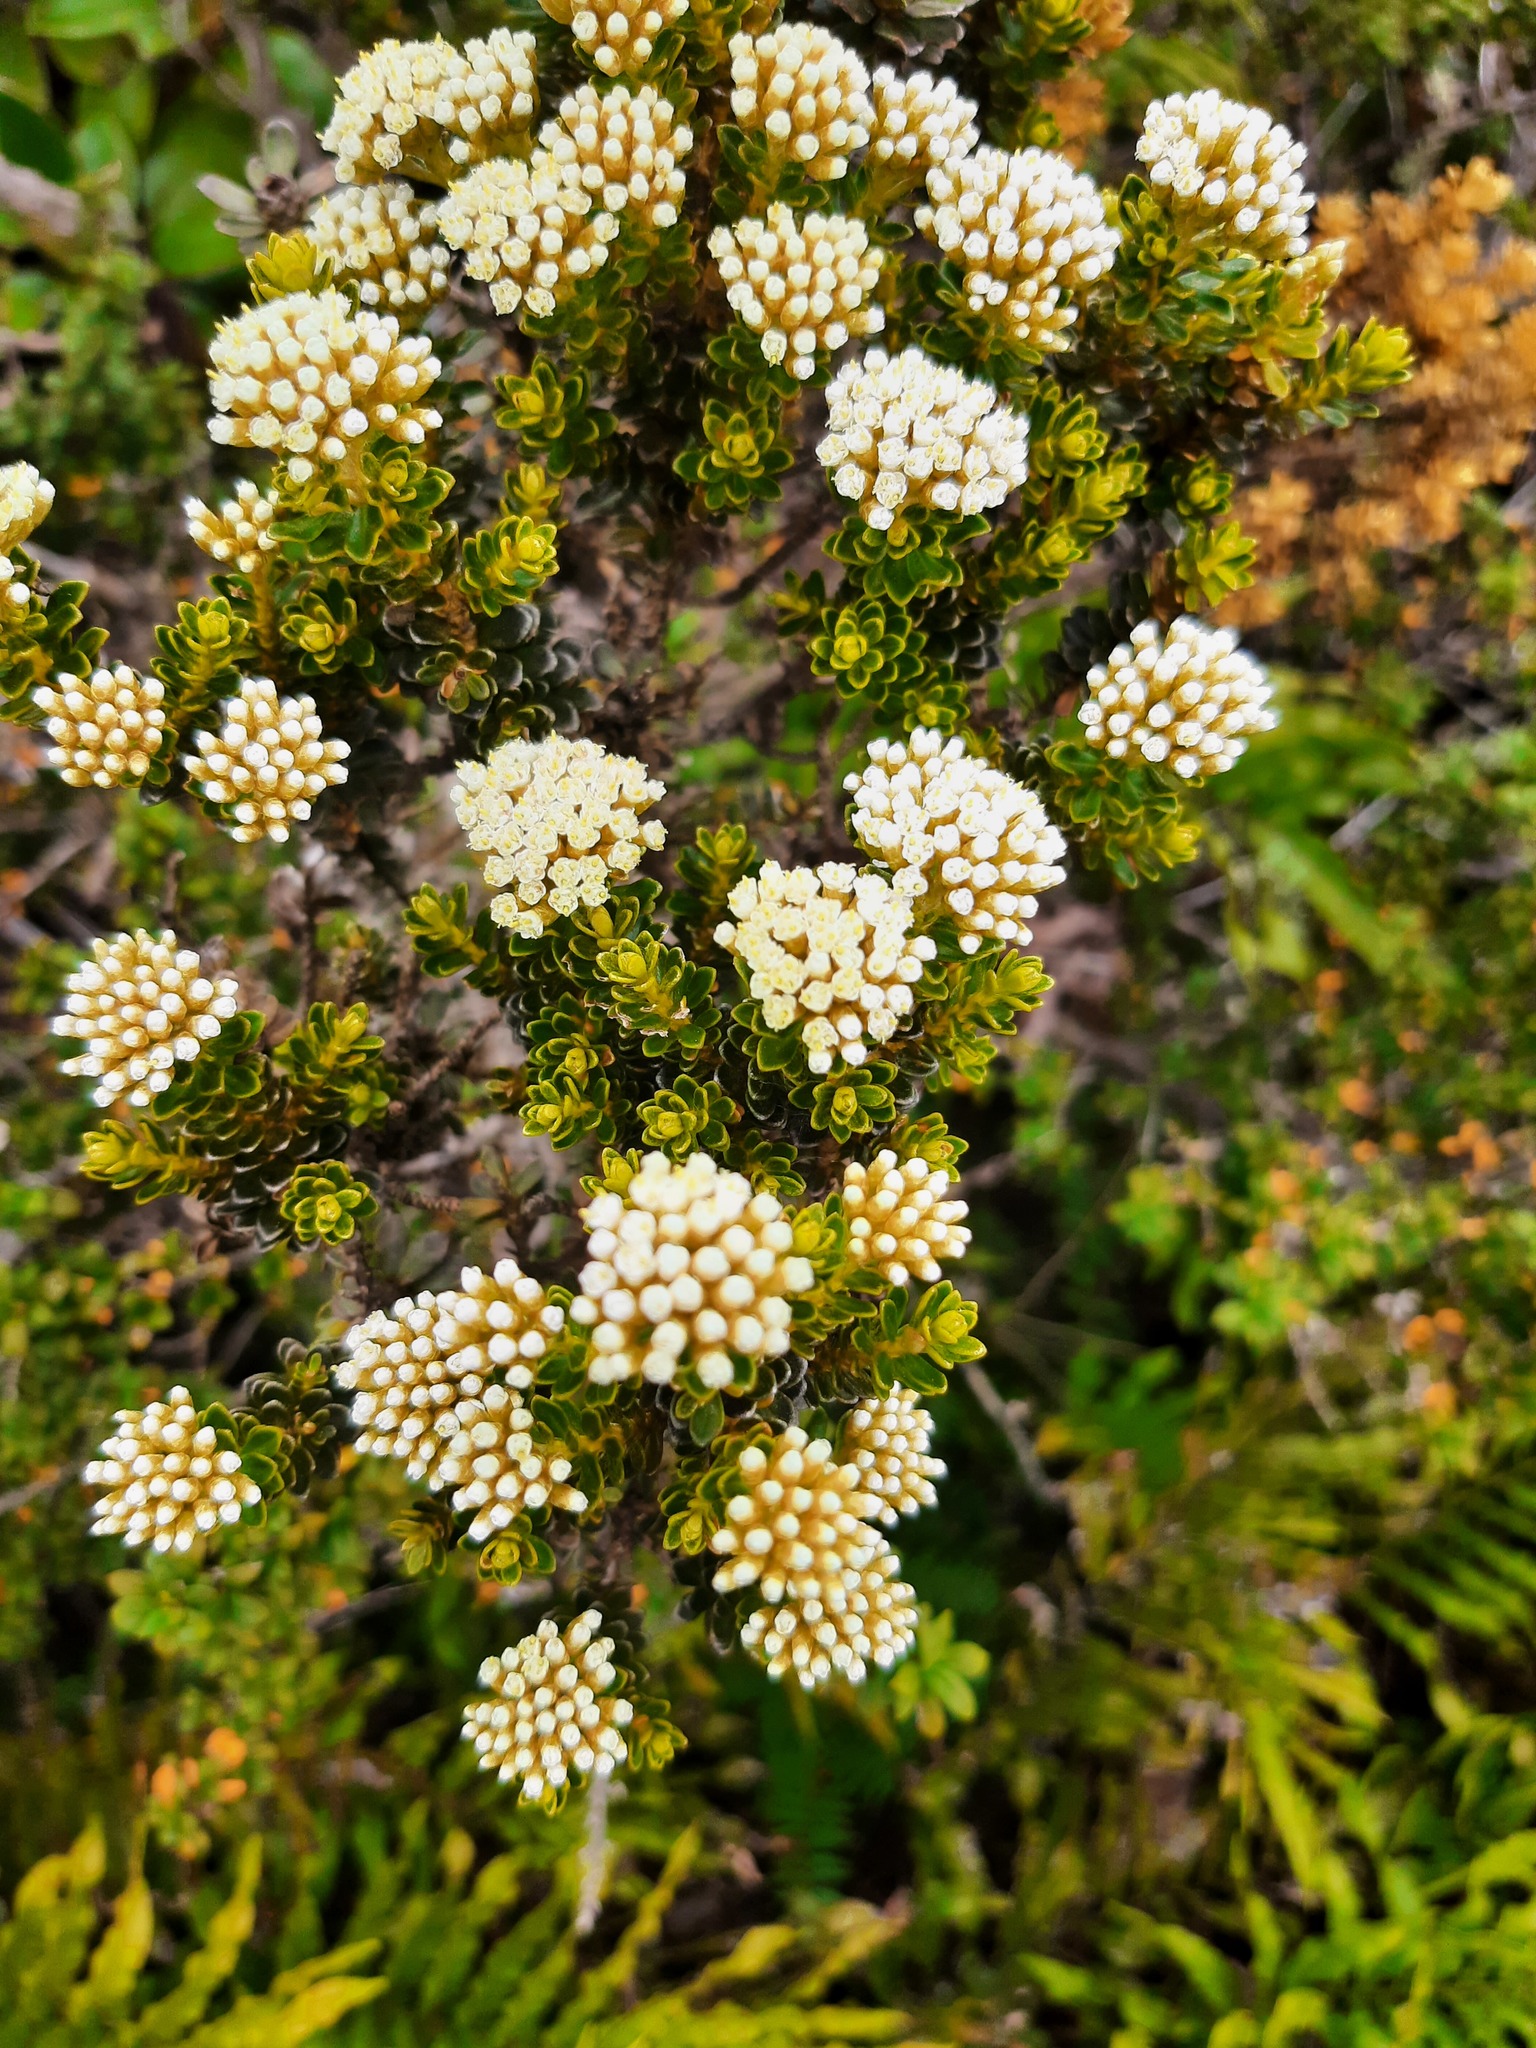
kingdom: Plantae
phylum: Tracheophyta
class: Magnoliopsida
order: Asterales
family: Asteraceae
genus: Ozothamnus
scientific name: Ozothamnus leptophyllus
